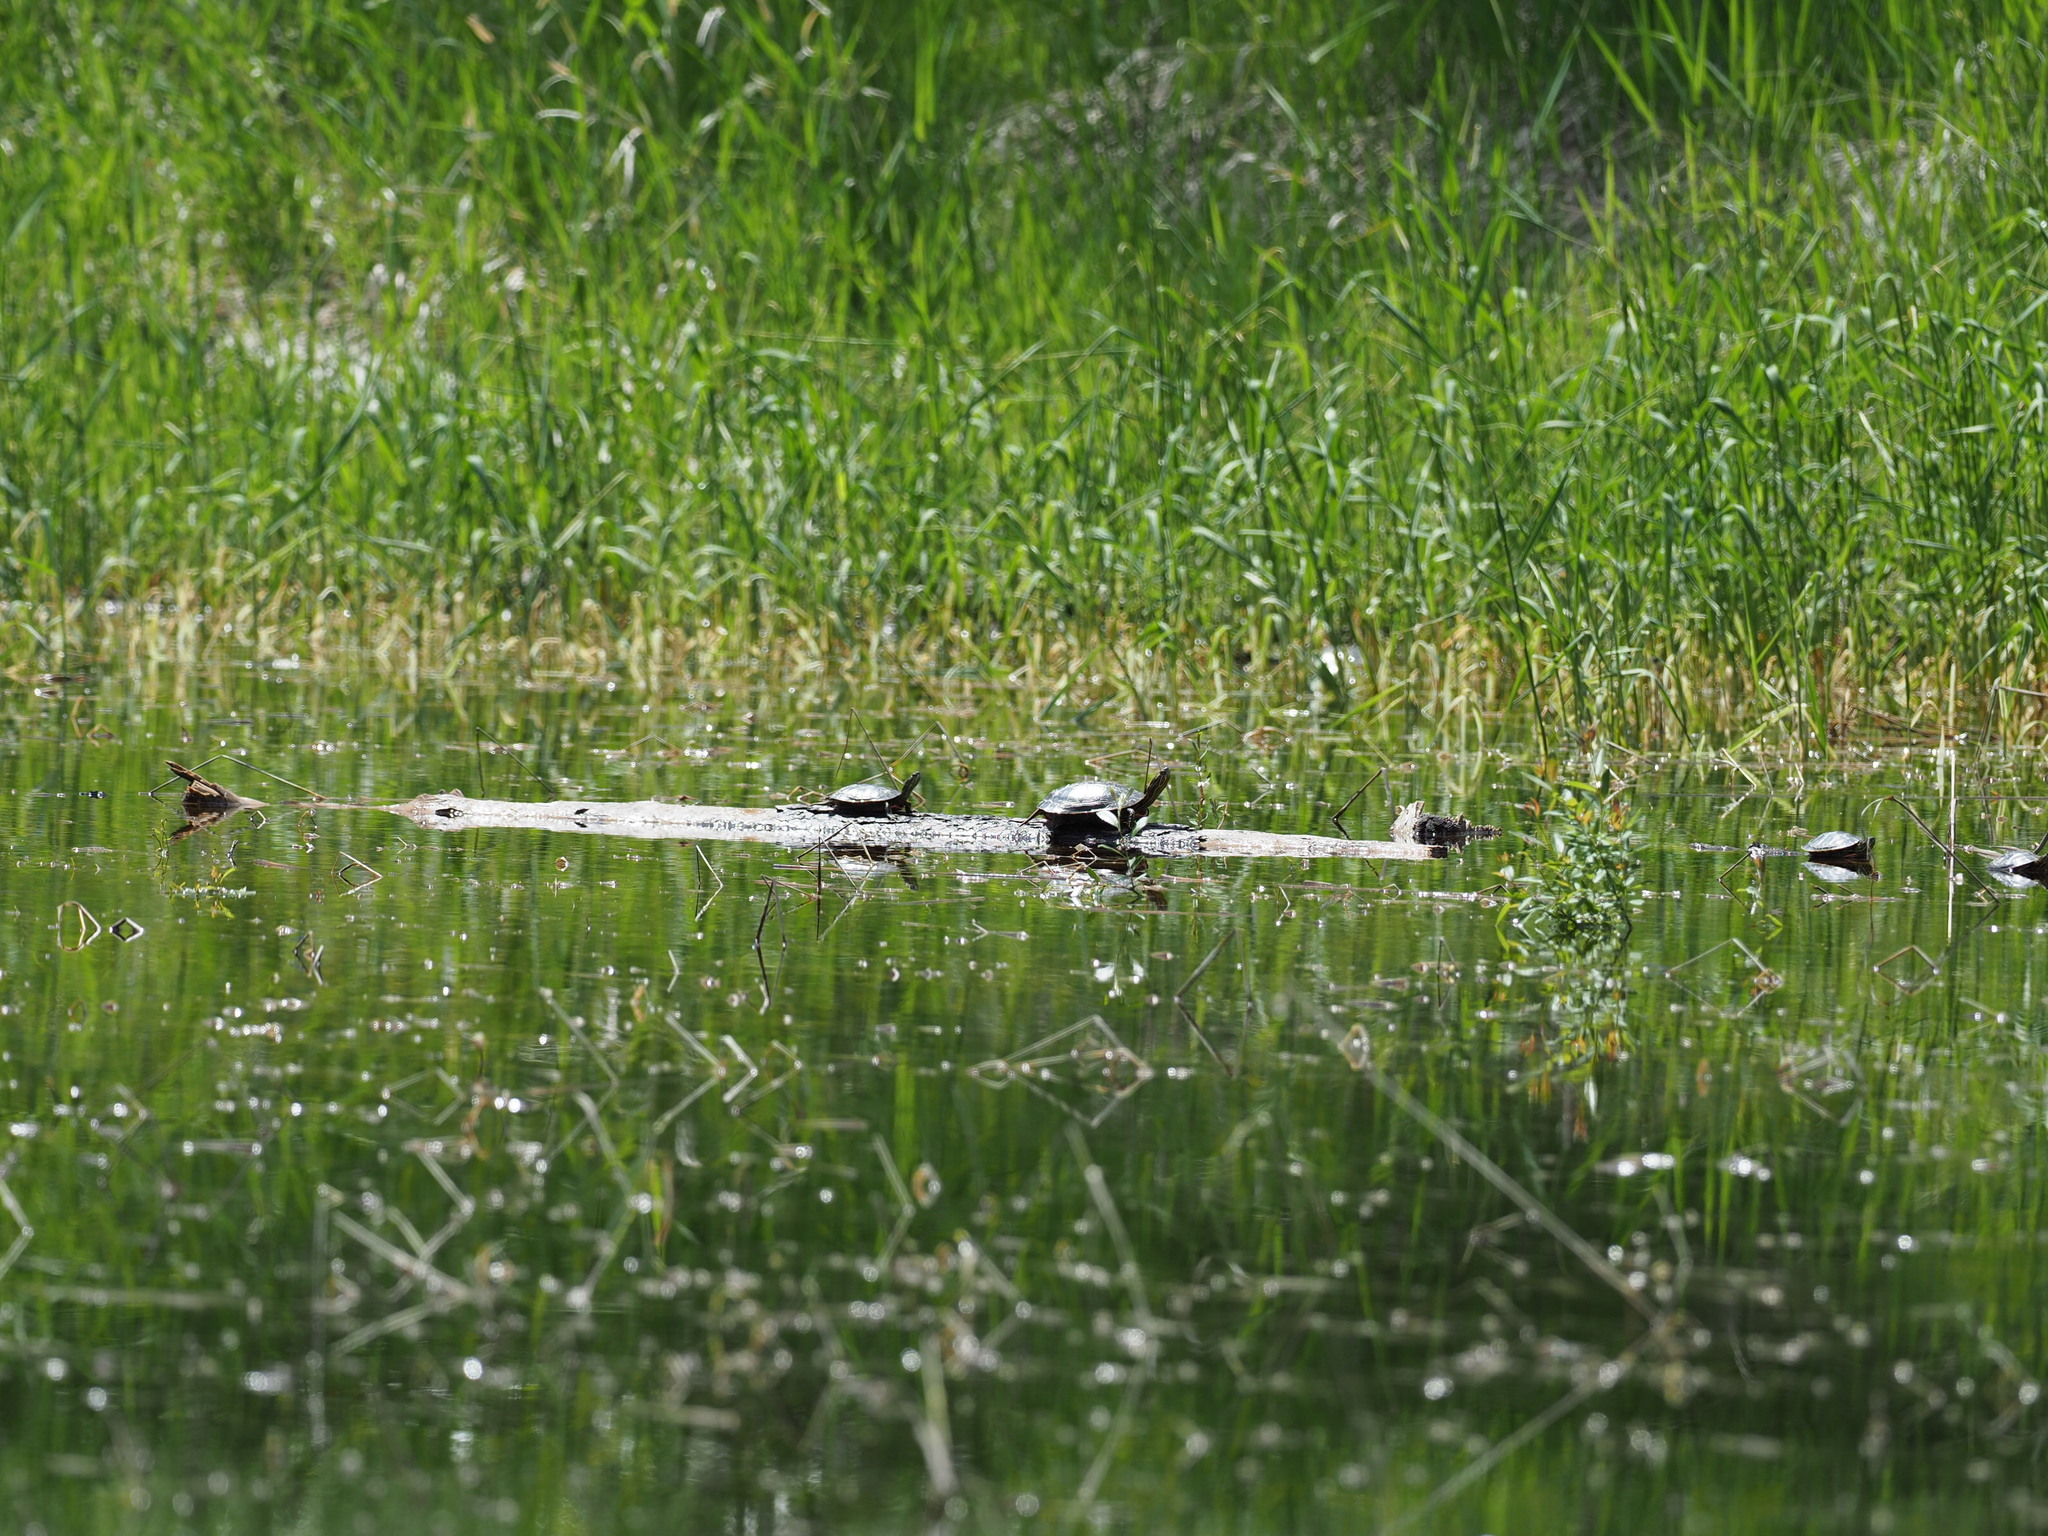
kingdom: Animalia
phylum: Chordata
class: Testudines
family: Emydidae
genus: Chrysemys
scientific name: Chrysemys picta
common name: Painted turtle
